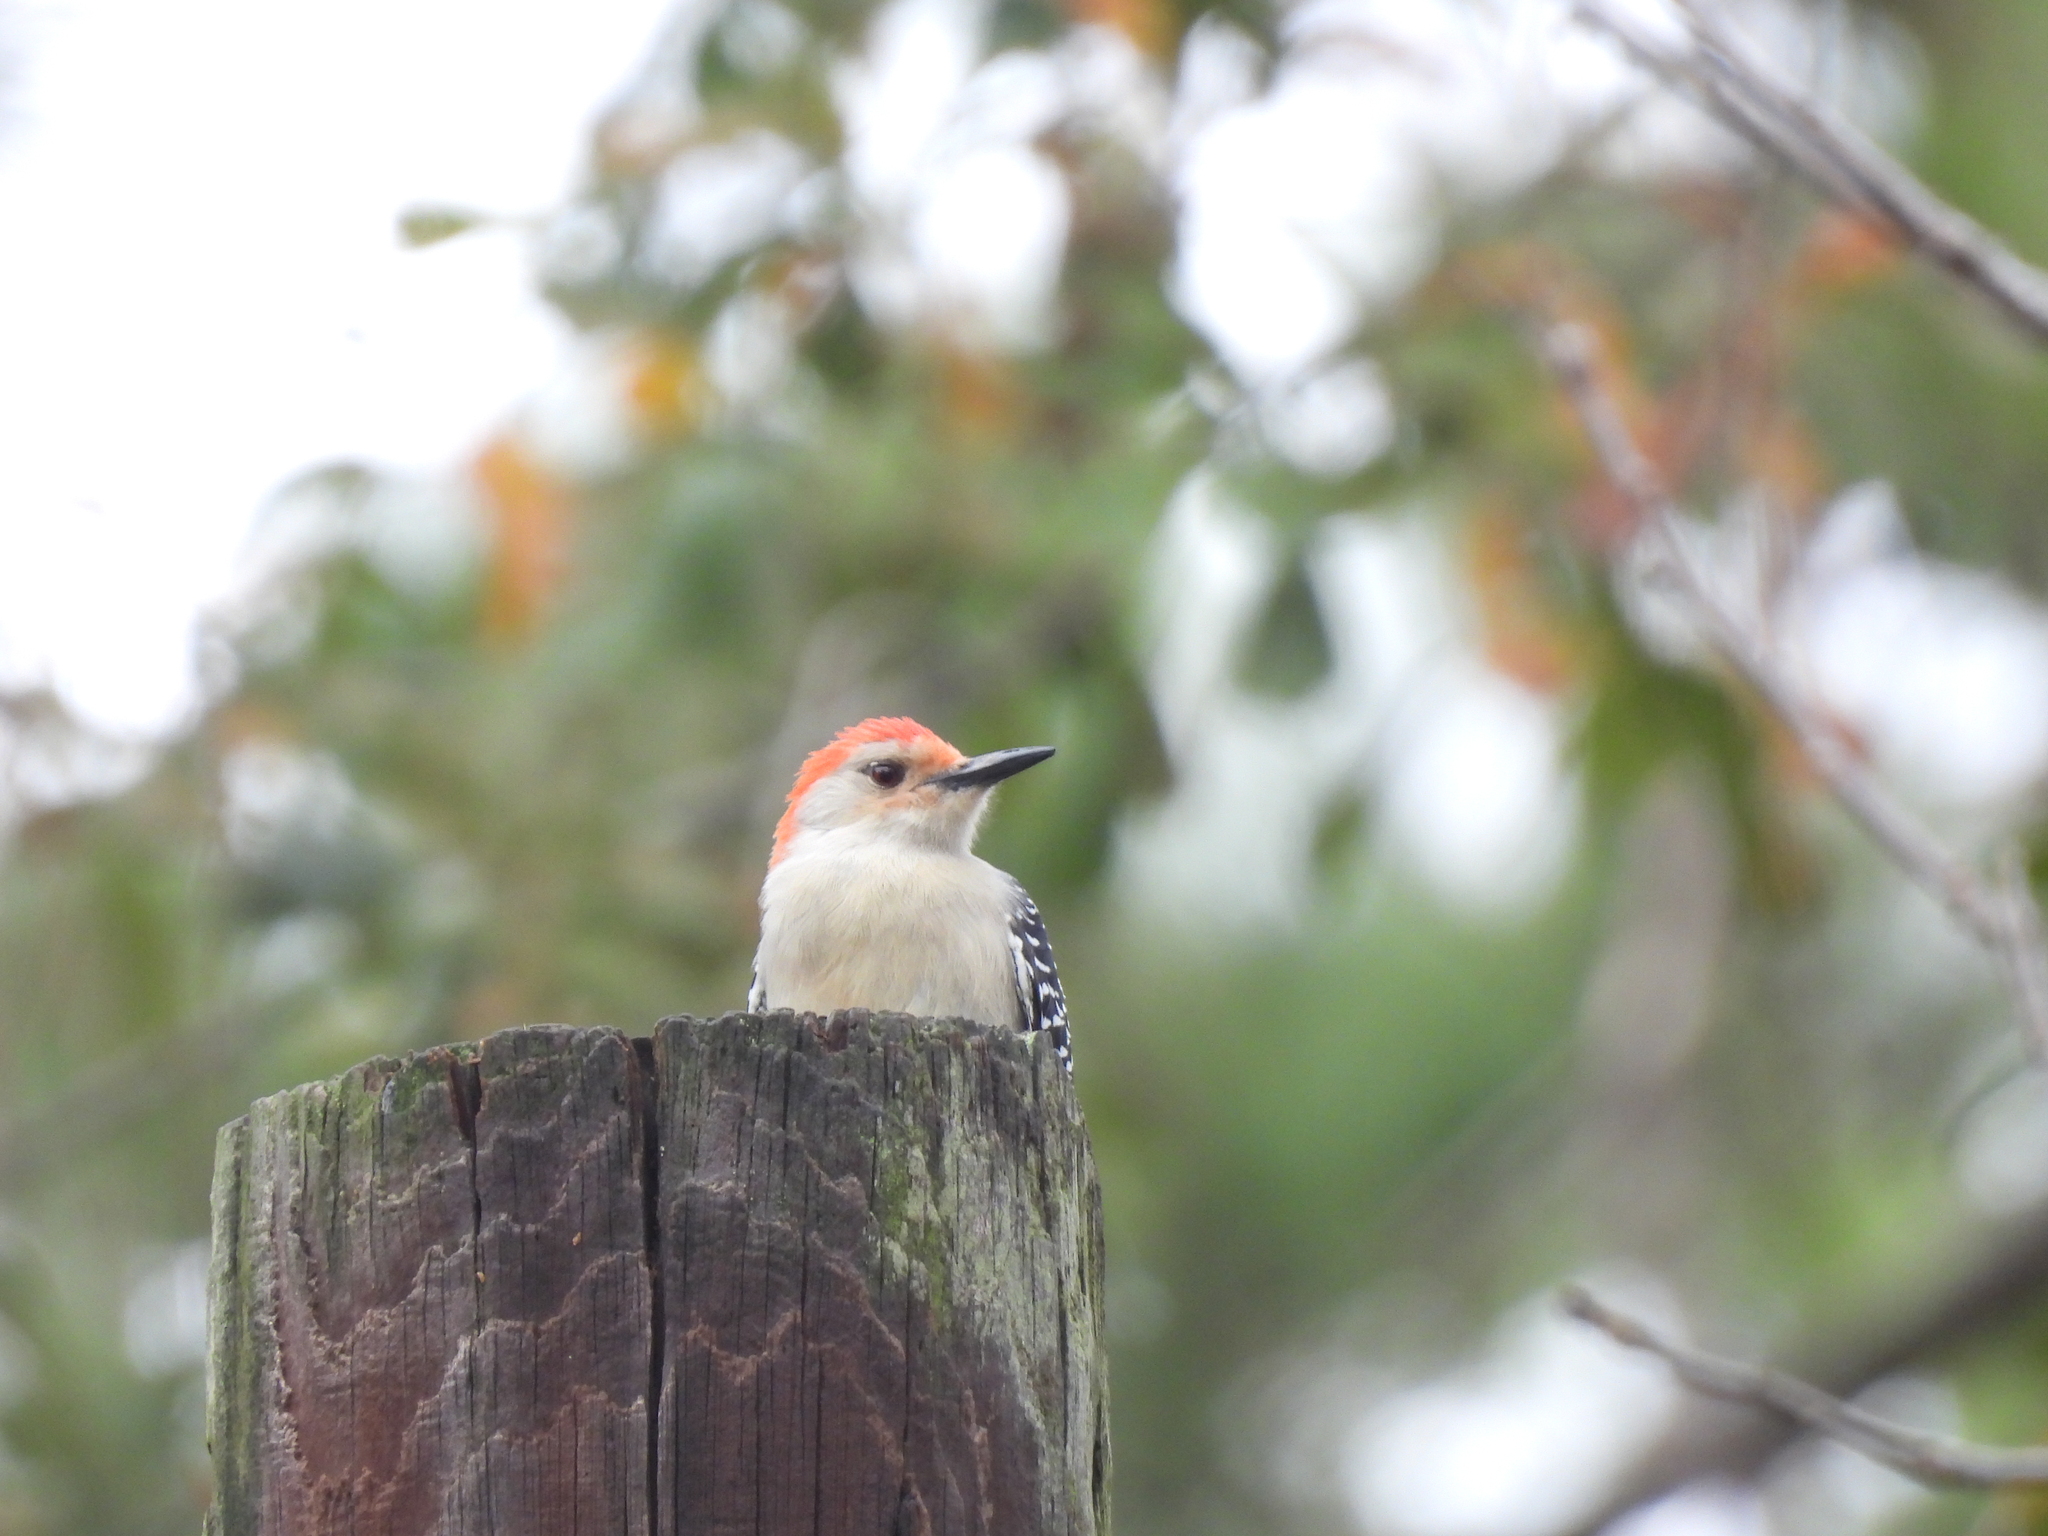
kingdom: Animalia
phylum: Chordata
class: Aves
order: Piciformes
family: Picidae
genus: Melanerpes
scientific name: Melanerpes carolinus
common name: Red-bellied woodpecker
